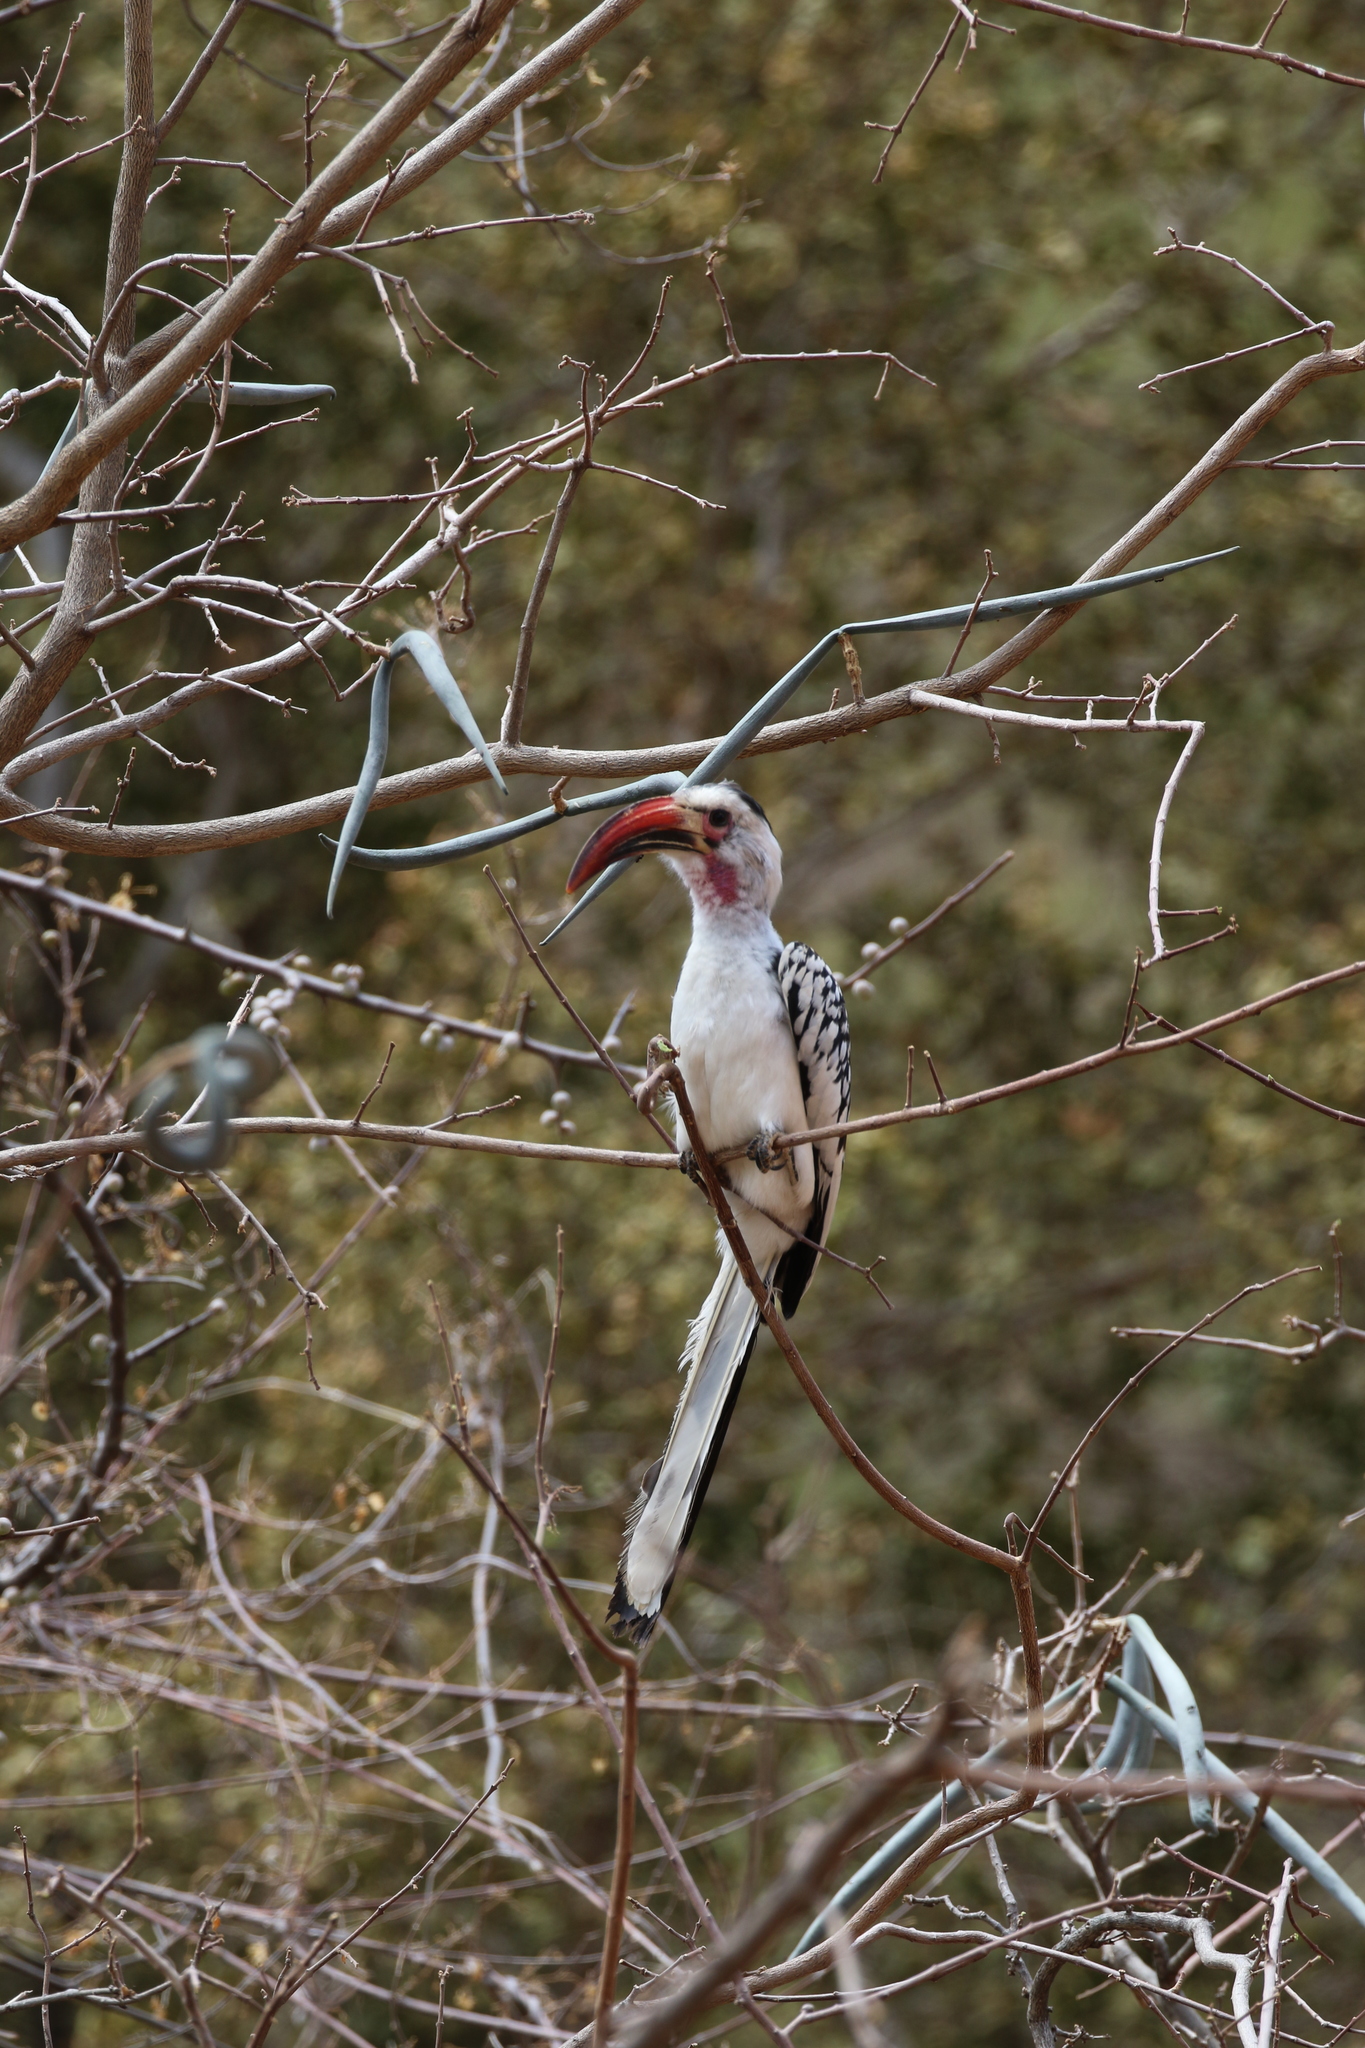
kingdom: Animalia
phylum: Chordata
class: Aves
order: Bucerotiformes
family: Bucerotidae
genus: Tockus
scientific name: Tockus erythrorhynchus
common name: Northern red-billed hornbill
